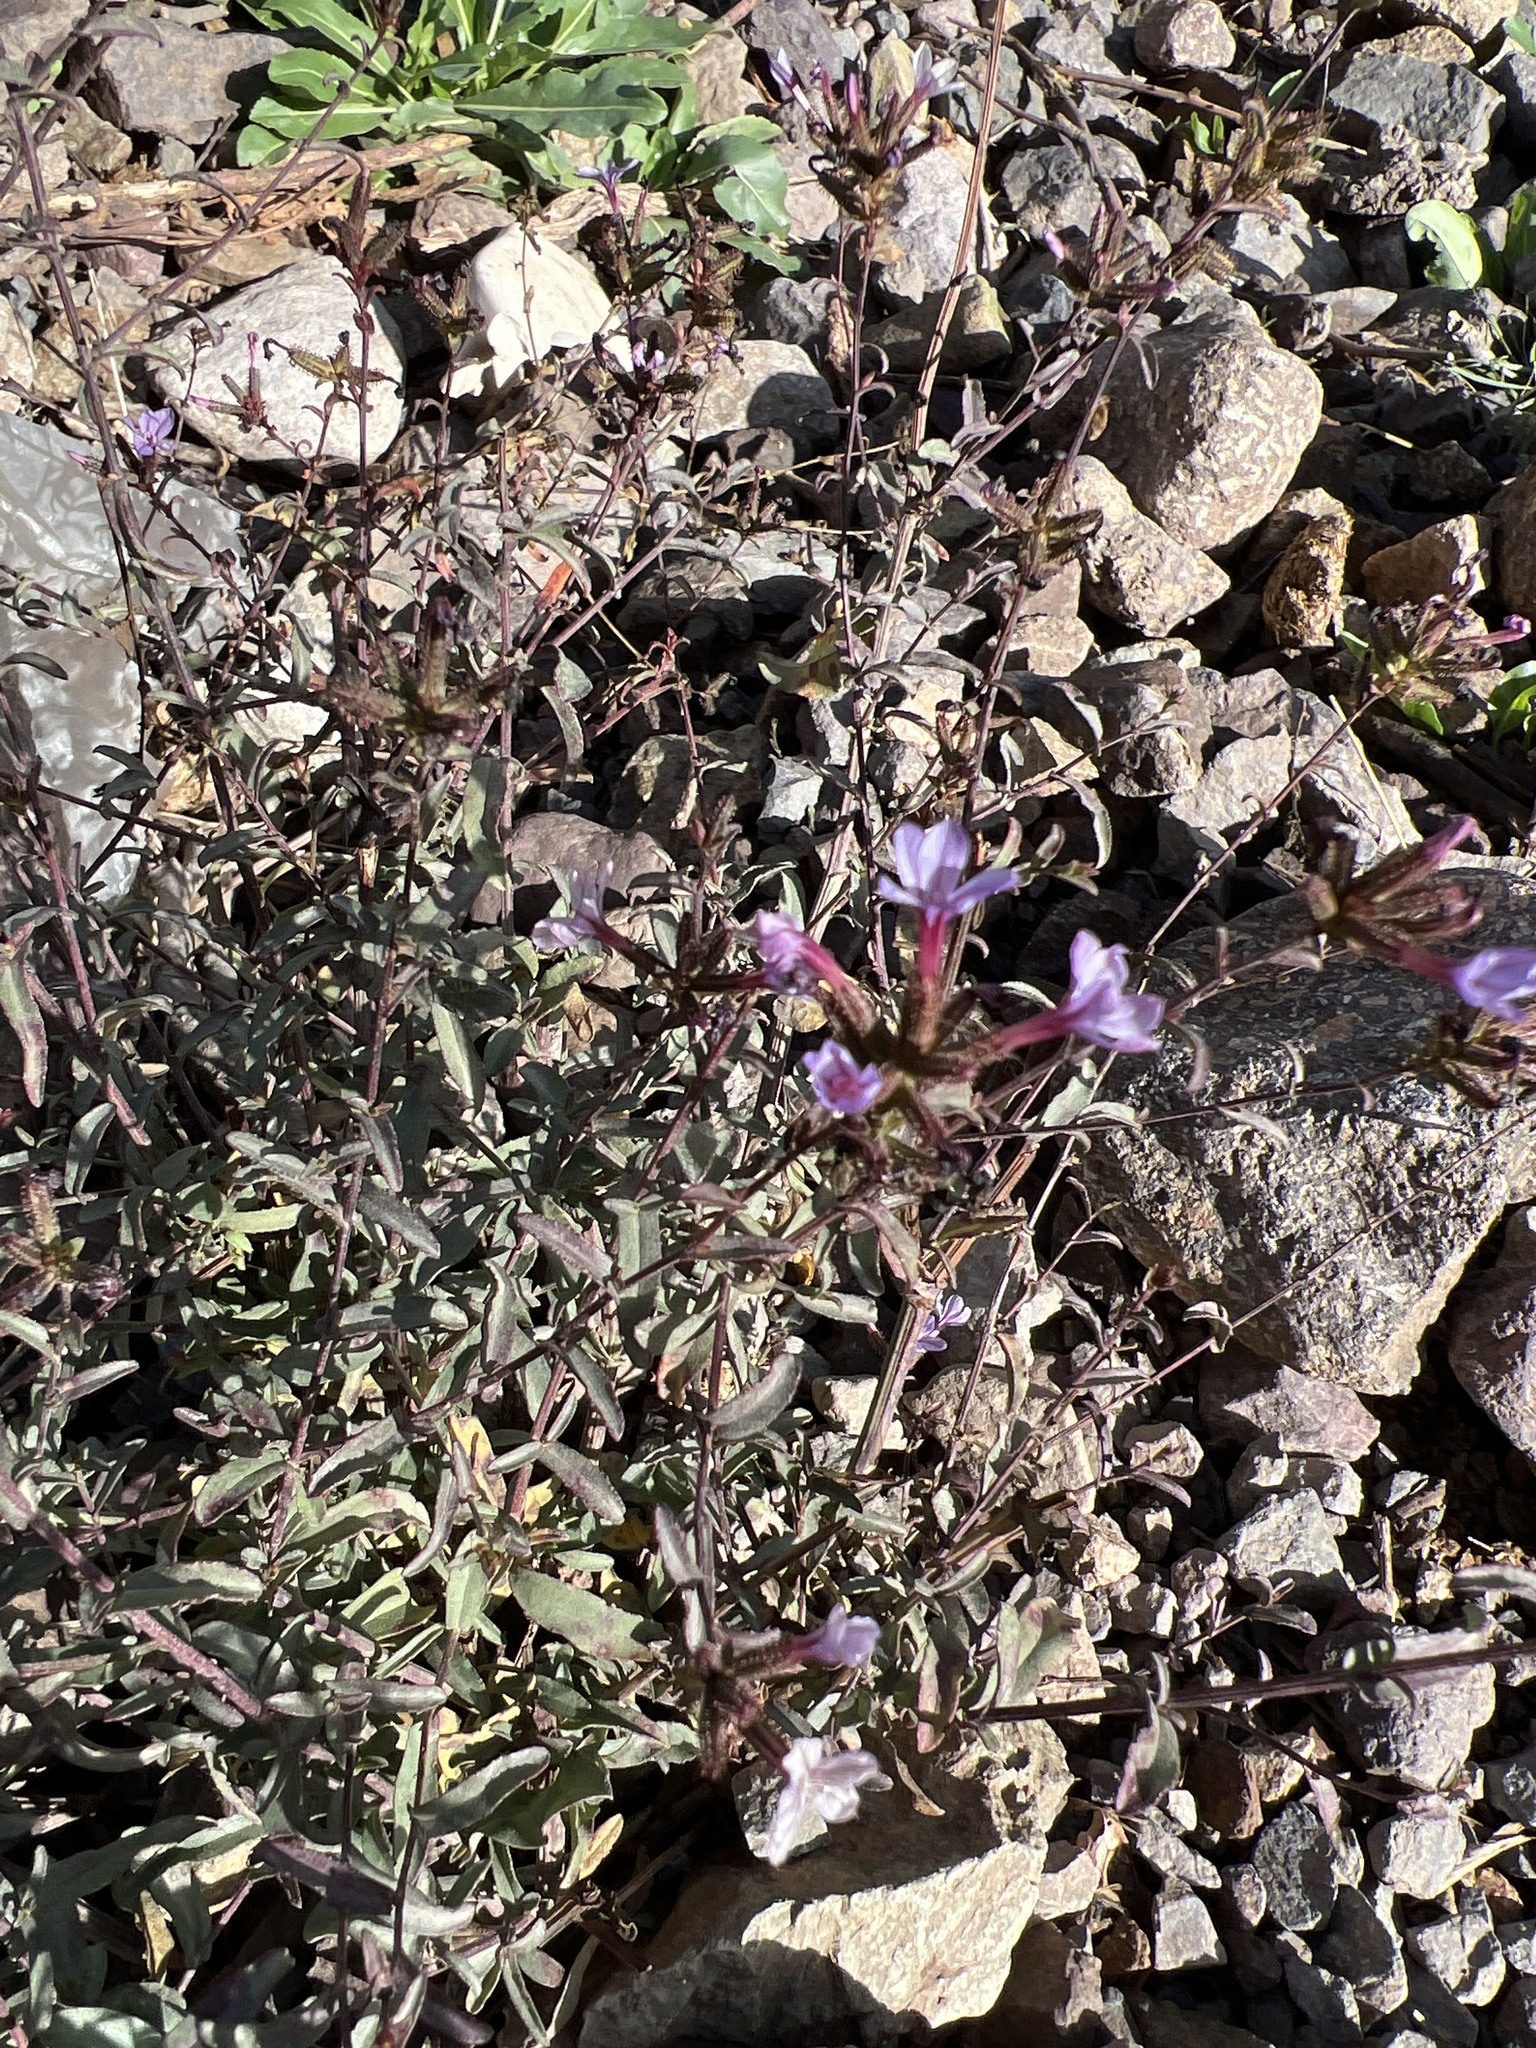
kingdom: Plantae
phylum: Tracheophyta
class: Magnoliopsida
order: Caryophyllales
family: Plumbaginaceae
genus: Plumbago
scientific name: Plumbago europaea
